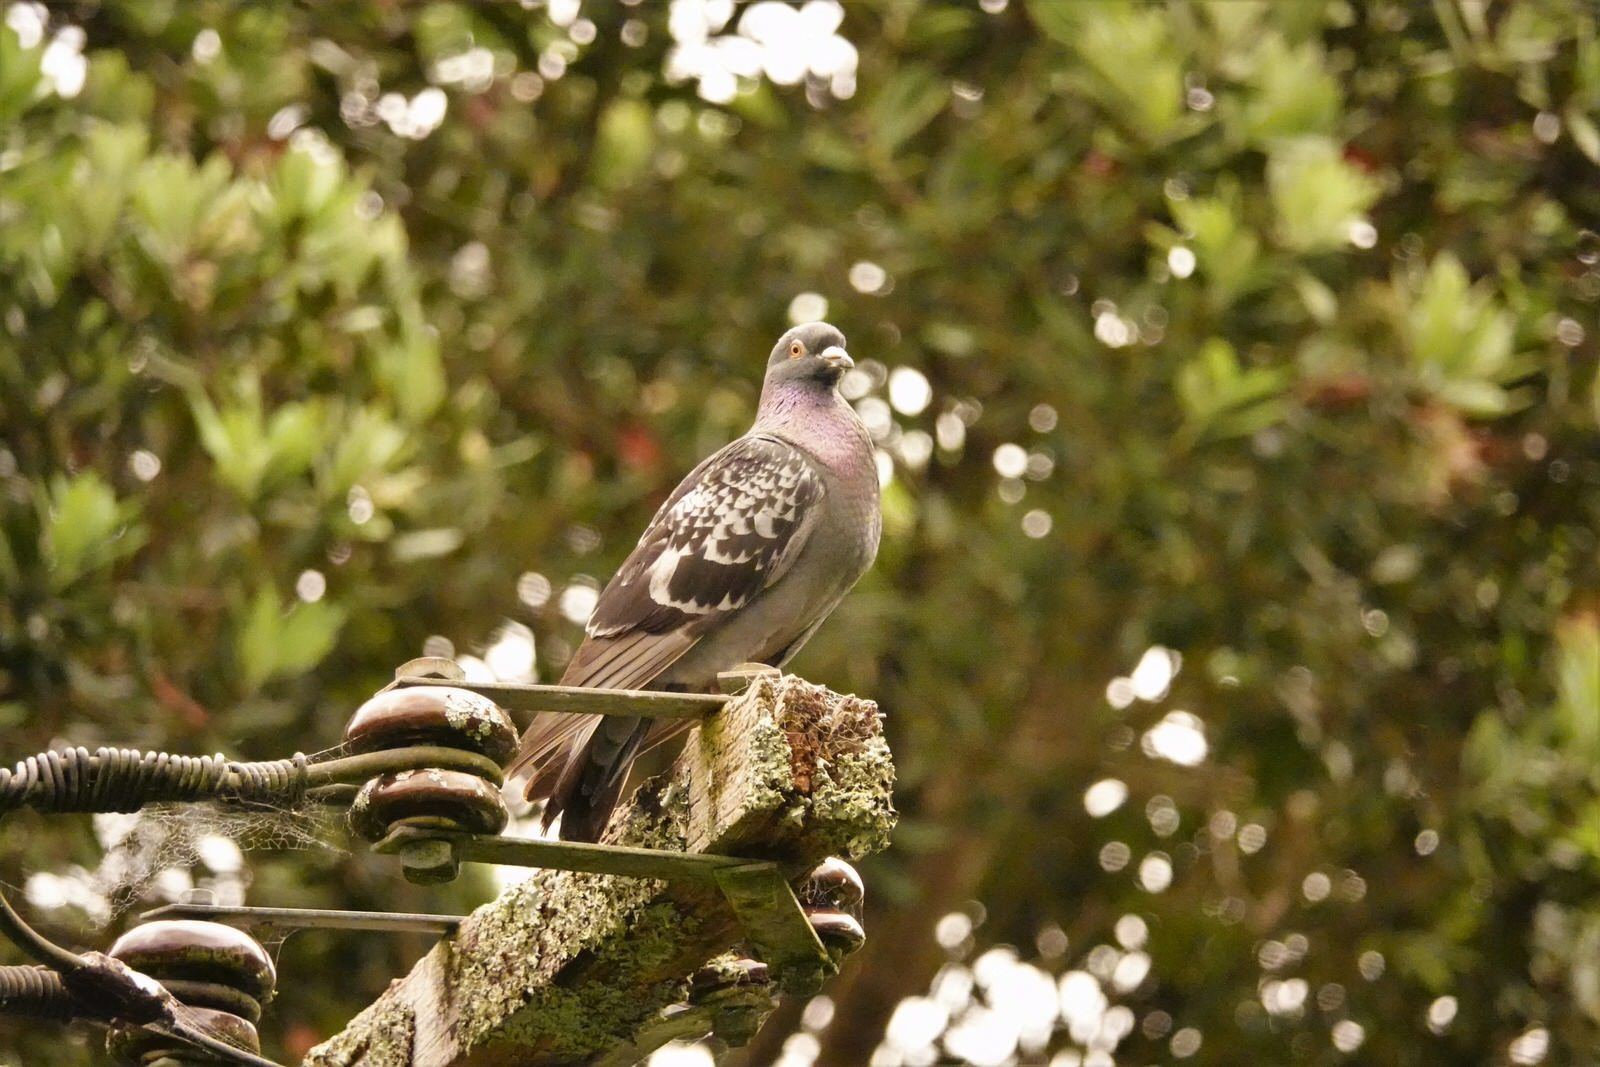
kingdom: Animalia
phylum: Chordata
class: Aves
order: Columbiformes
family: Columbidae
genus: Columba
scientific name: Columba livia
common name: Rock pigeon
